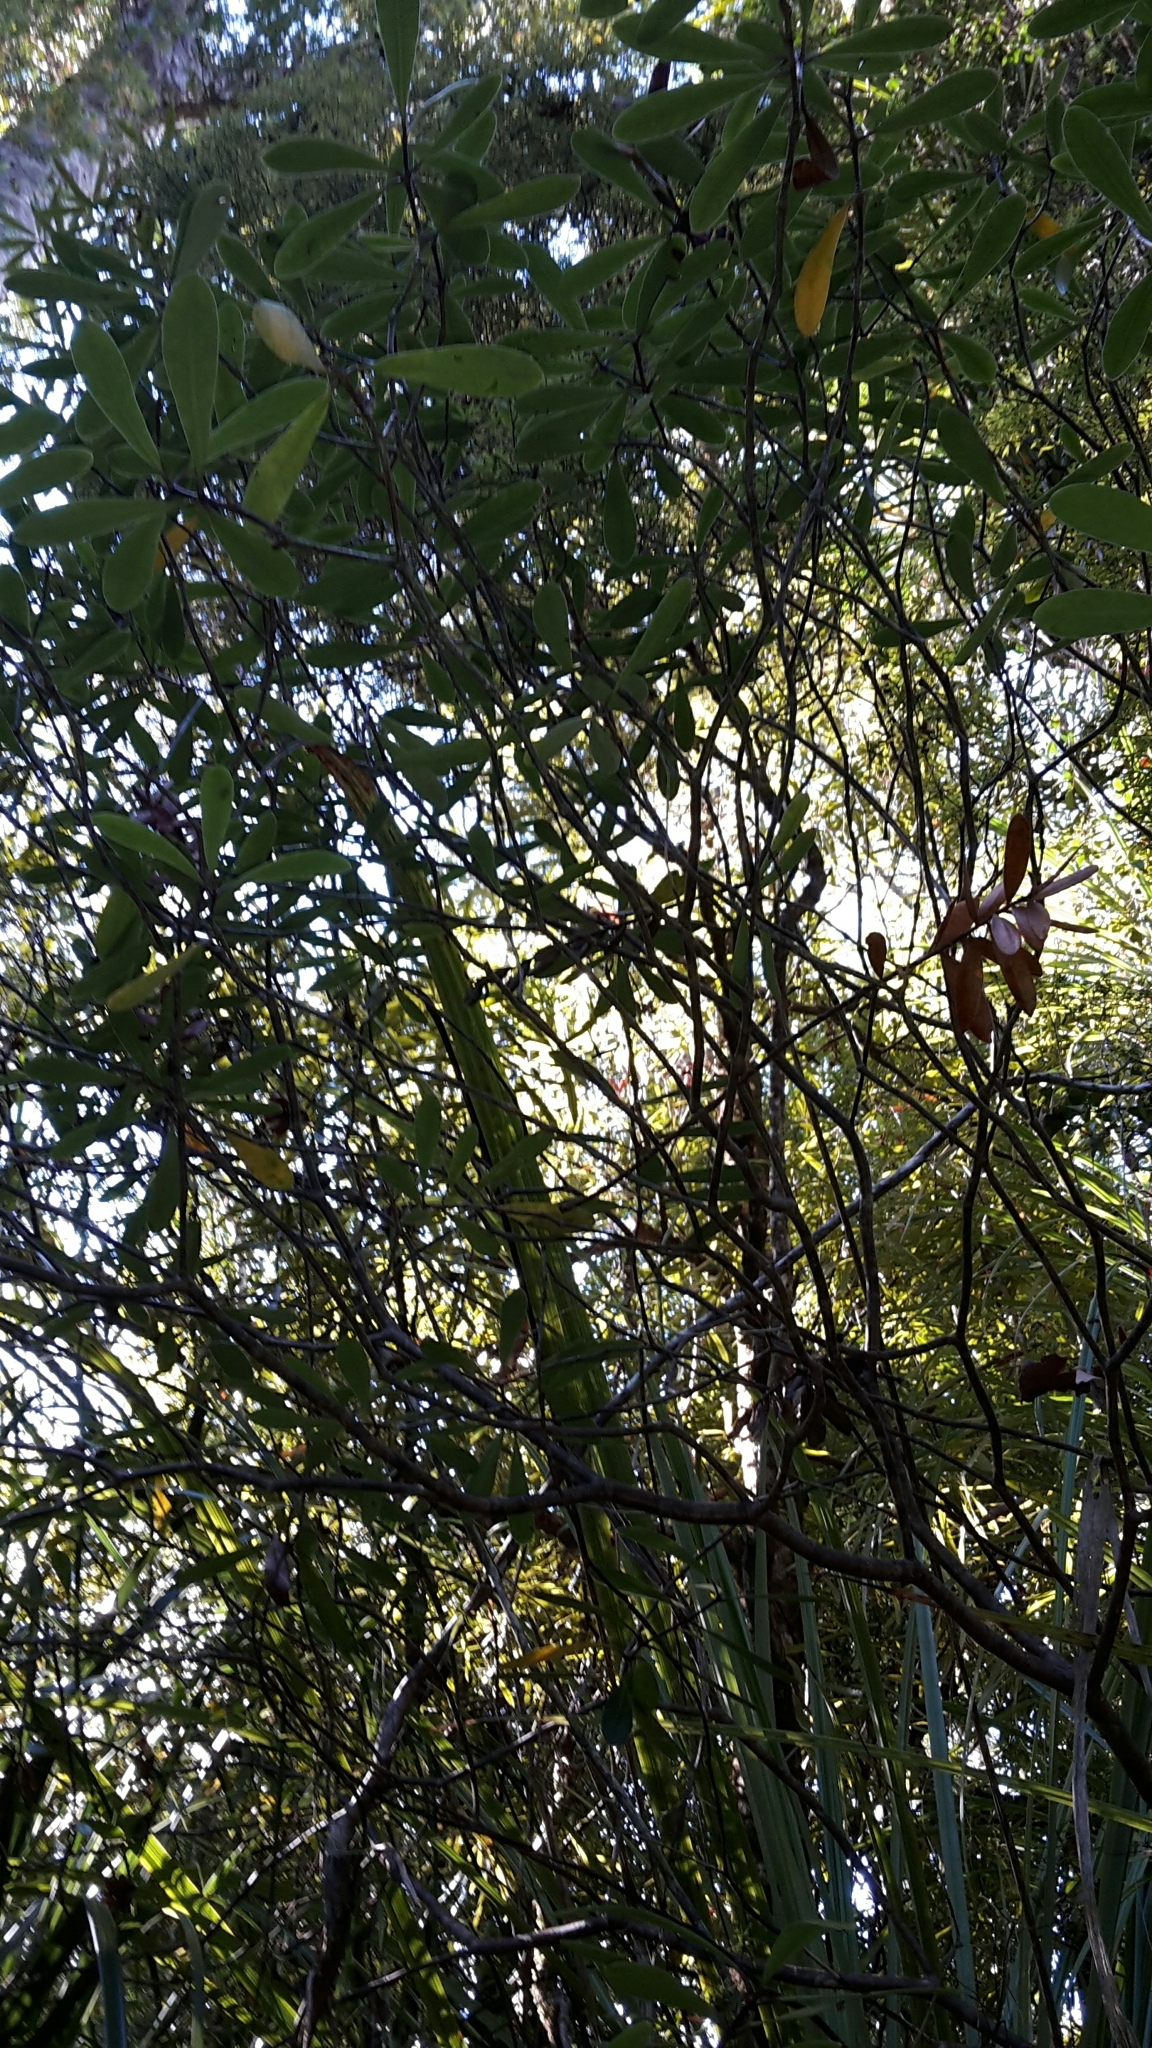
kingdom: Plantae
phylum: Tracheophyta
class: Magnoliopsida
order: Apiales
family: Pittosporaceae
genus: Pittosporum
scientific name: Pittosporum kirkii
